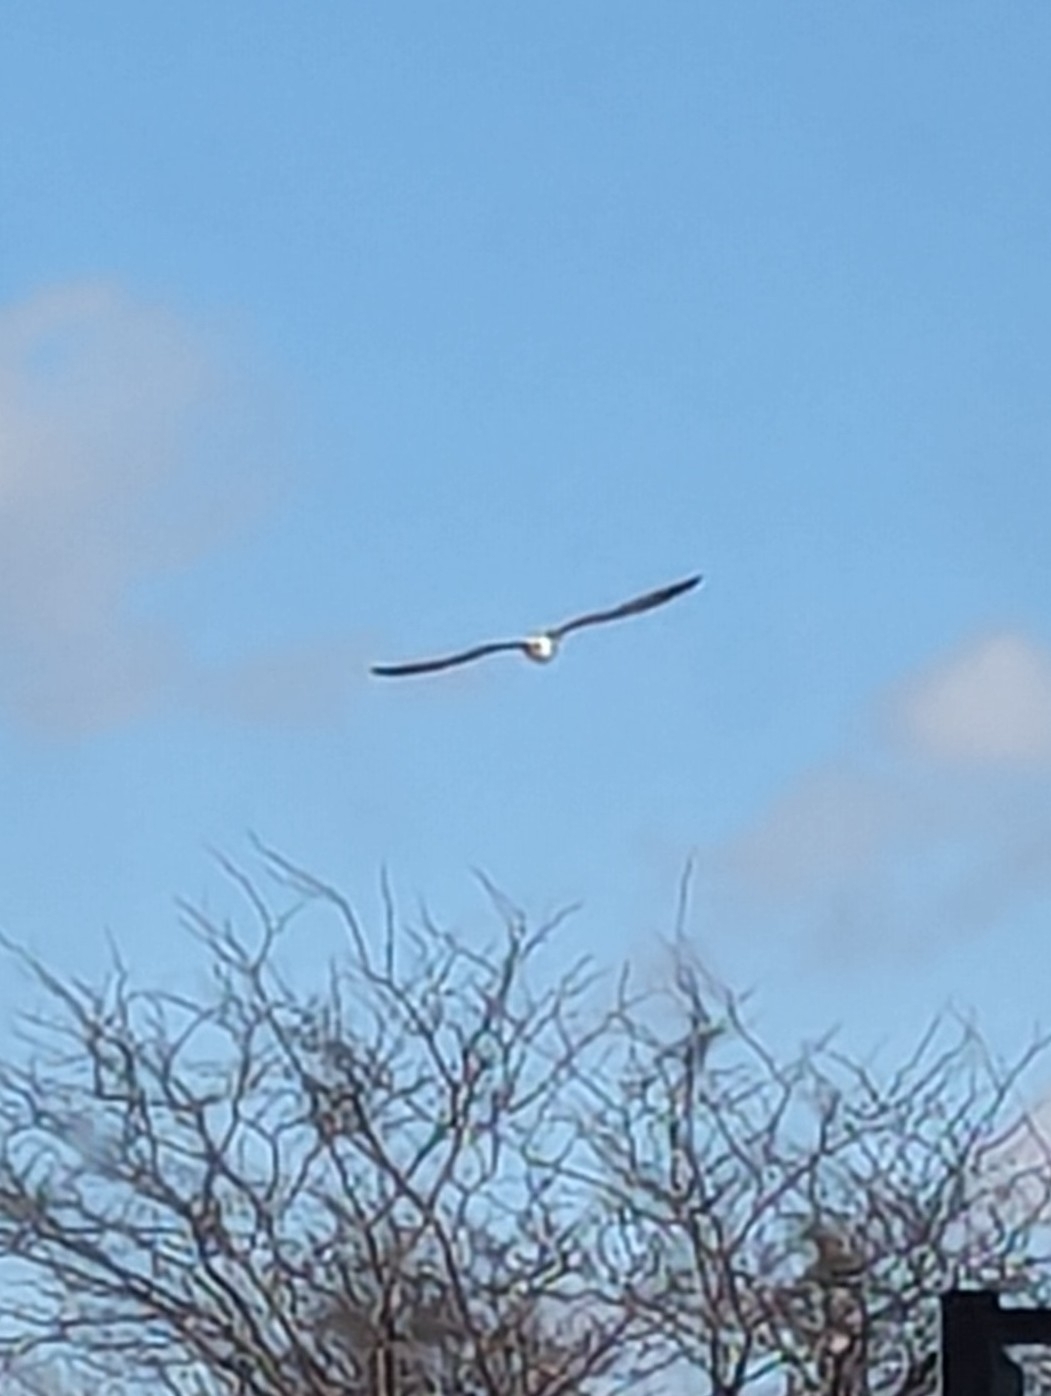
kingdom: Animalia
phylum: Chordata
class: Aves
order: Charadriiformes
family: Laridae
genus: Larus
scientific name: Larus delawarensis
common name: Ring-billed gull
